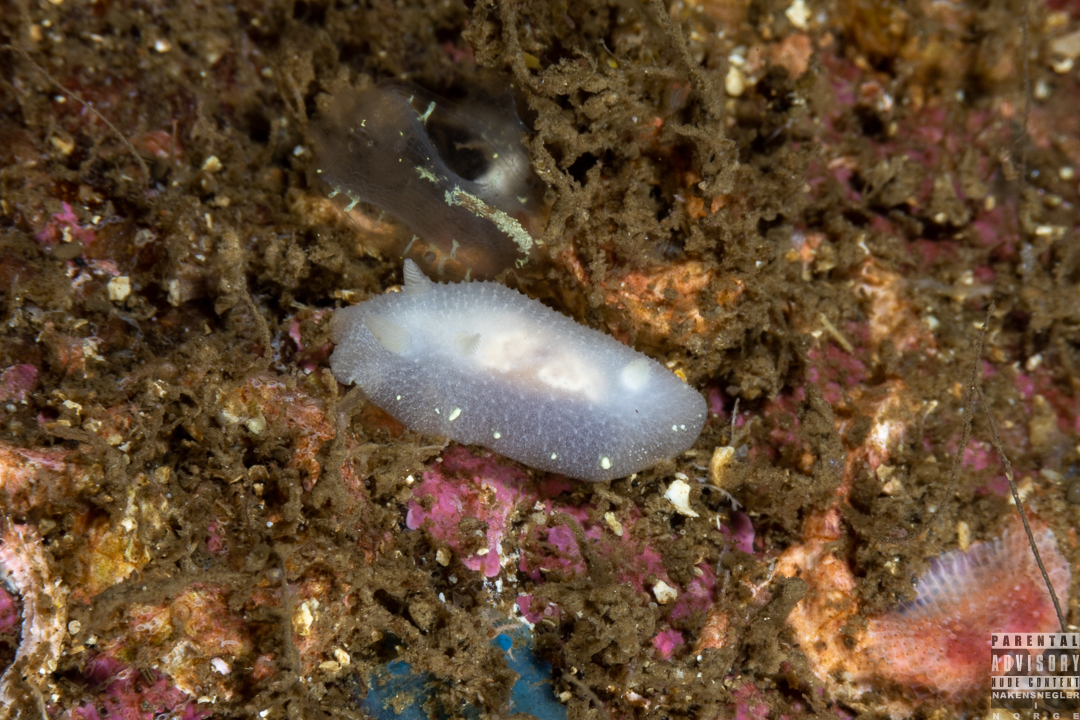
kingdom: Animalia
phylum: Mollusca
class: Gastropoda
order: Nudibranchia
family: Cadlinidae
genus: Cadlina
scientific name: Cadlina laevis
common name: White atlantic cadlina
